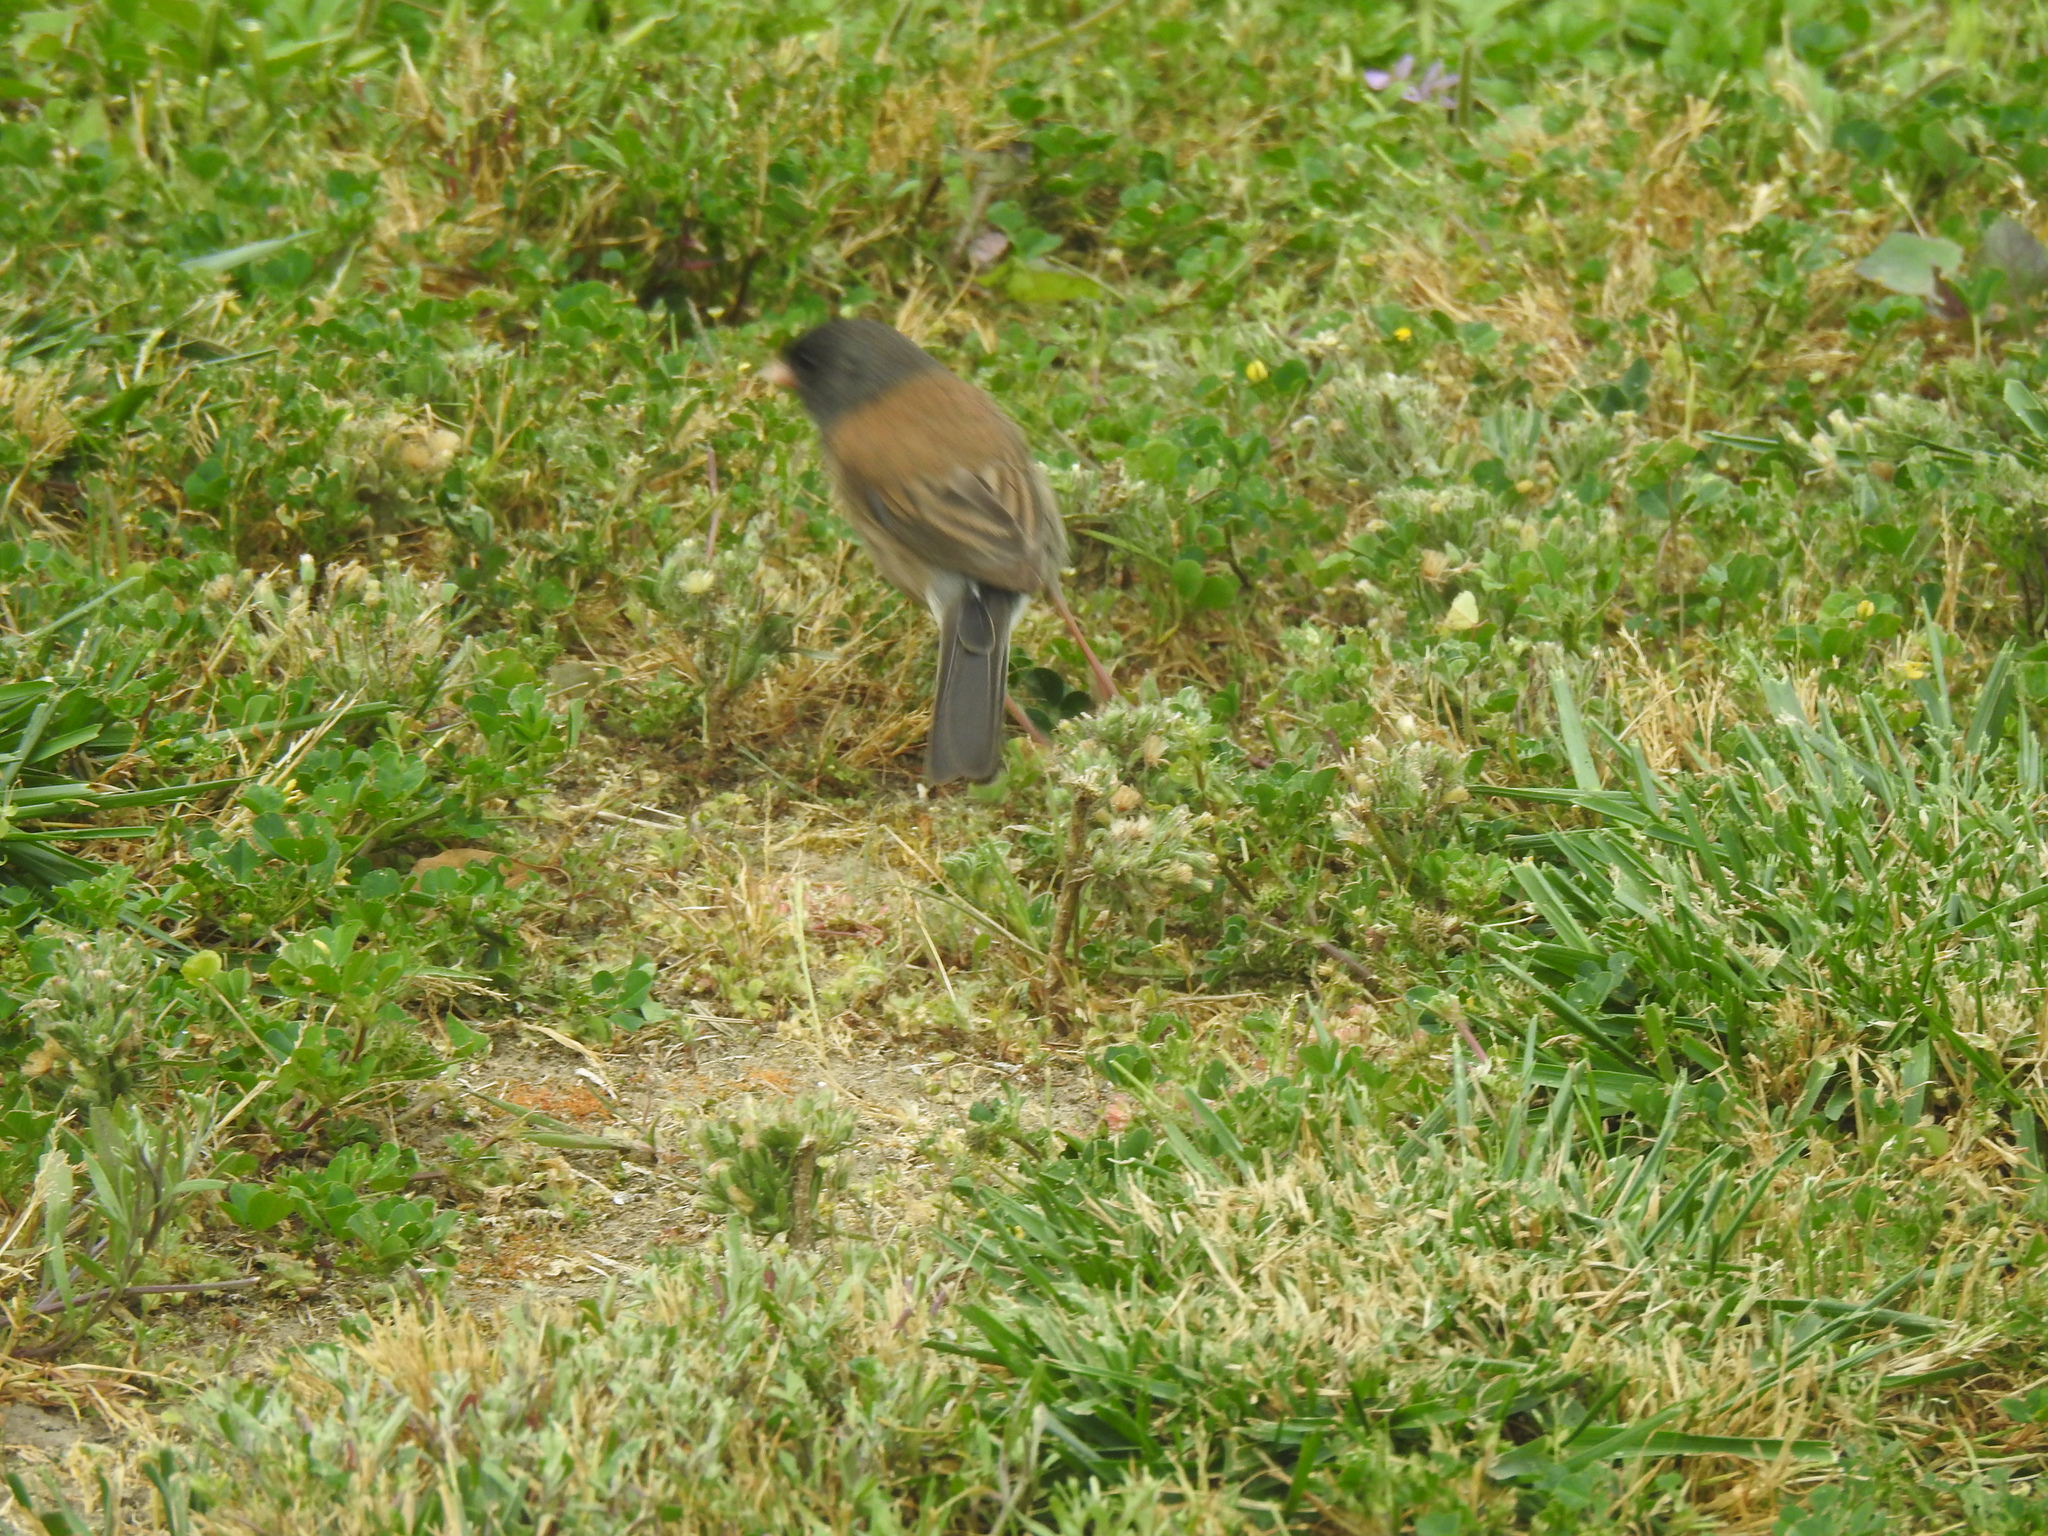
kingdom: Animalia
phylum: Chordata
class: Aves
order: Passeriformes
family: Passerellidae
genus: Junco
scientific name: Junco hyemalis
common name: Dark-eyed junco
